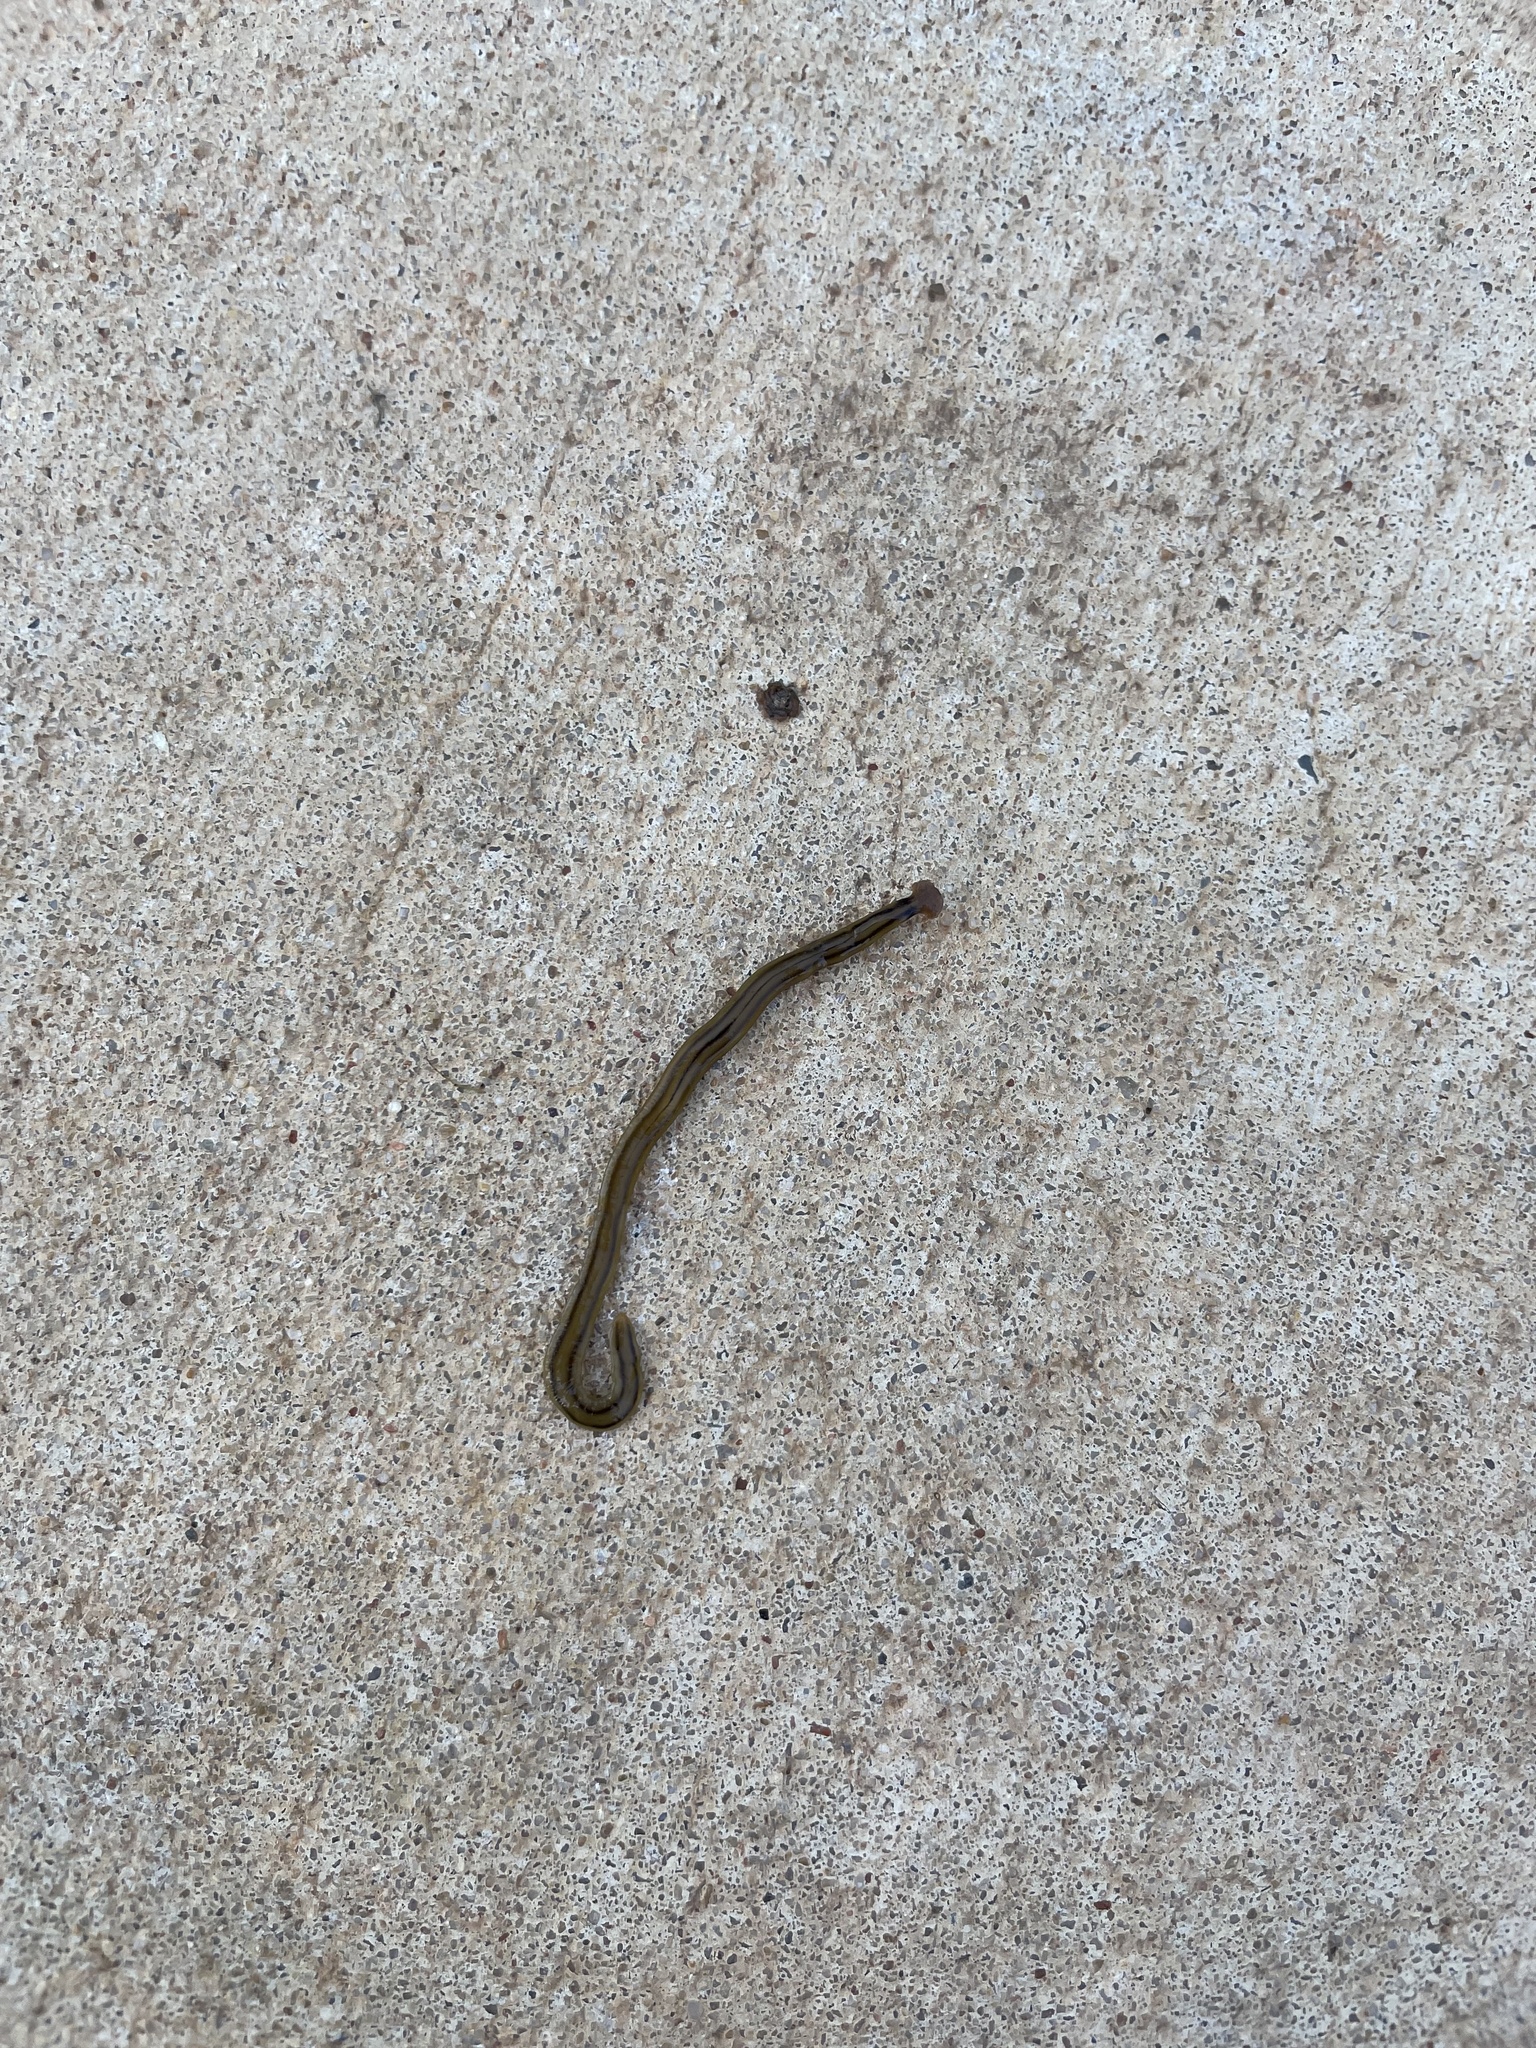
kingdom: Animalia
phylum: Platyhelminthes
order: Tricladida
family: Geoplanidae
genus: Bipalium
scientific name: Bipalium kewense
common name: Hammerhead flatworm
